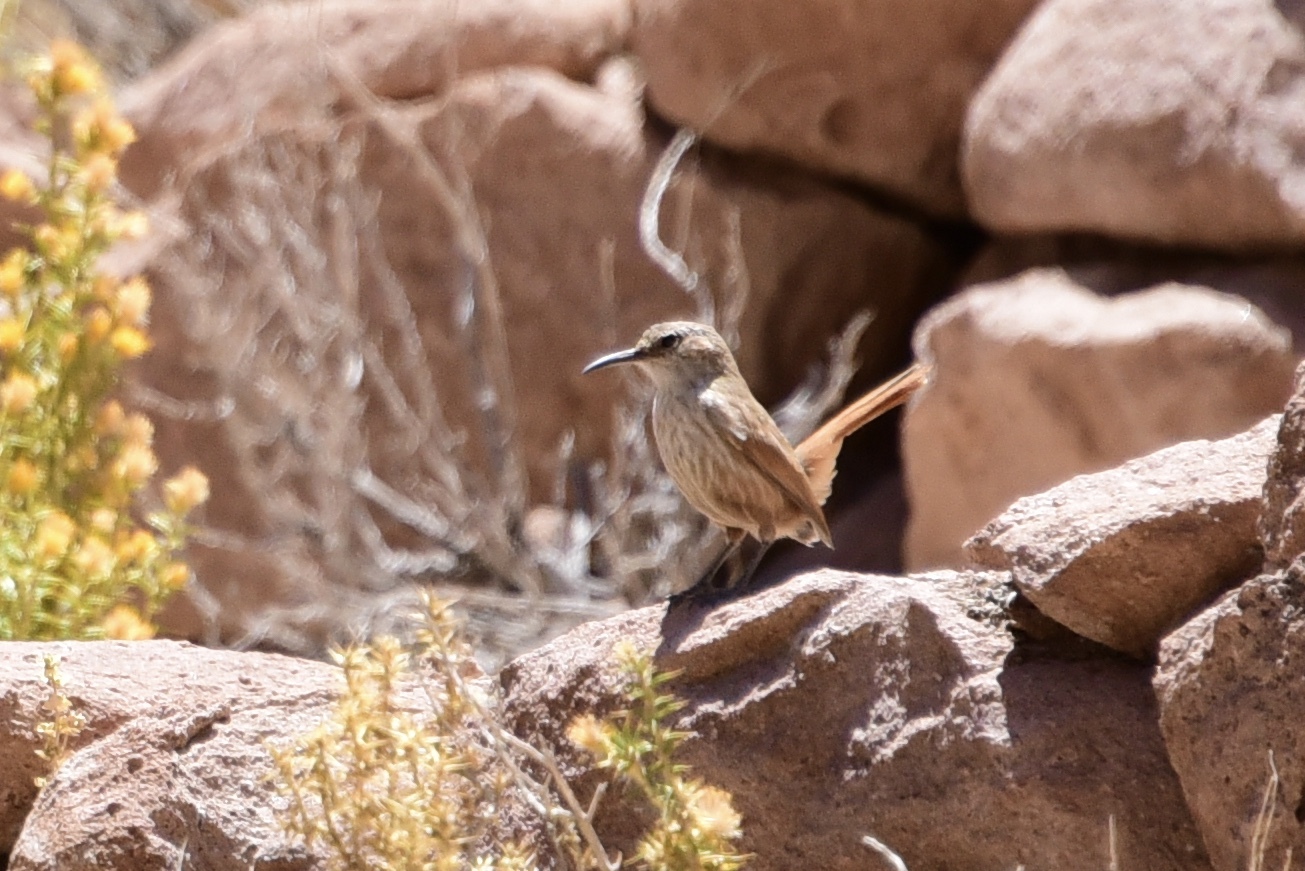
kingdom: Animalia
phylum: Chordata
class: Aves
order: Passeriformes
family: Furnariidae
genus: Upucerthia
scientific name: Upucerthia ruficaudus
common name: Straight-billed earthcreeper
